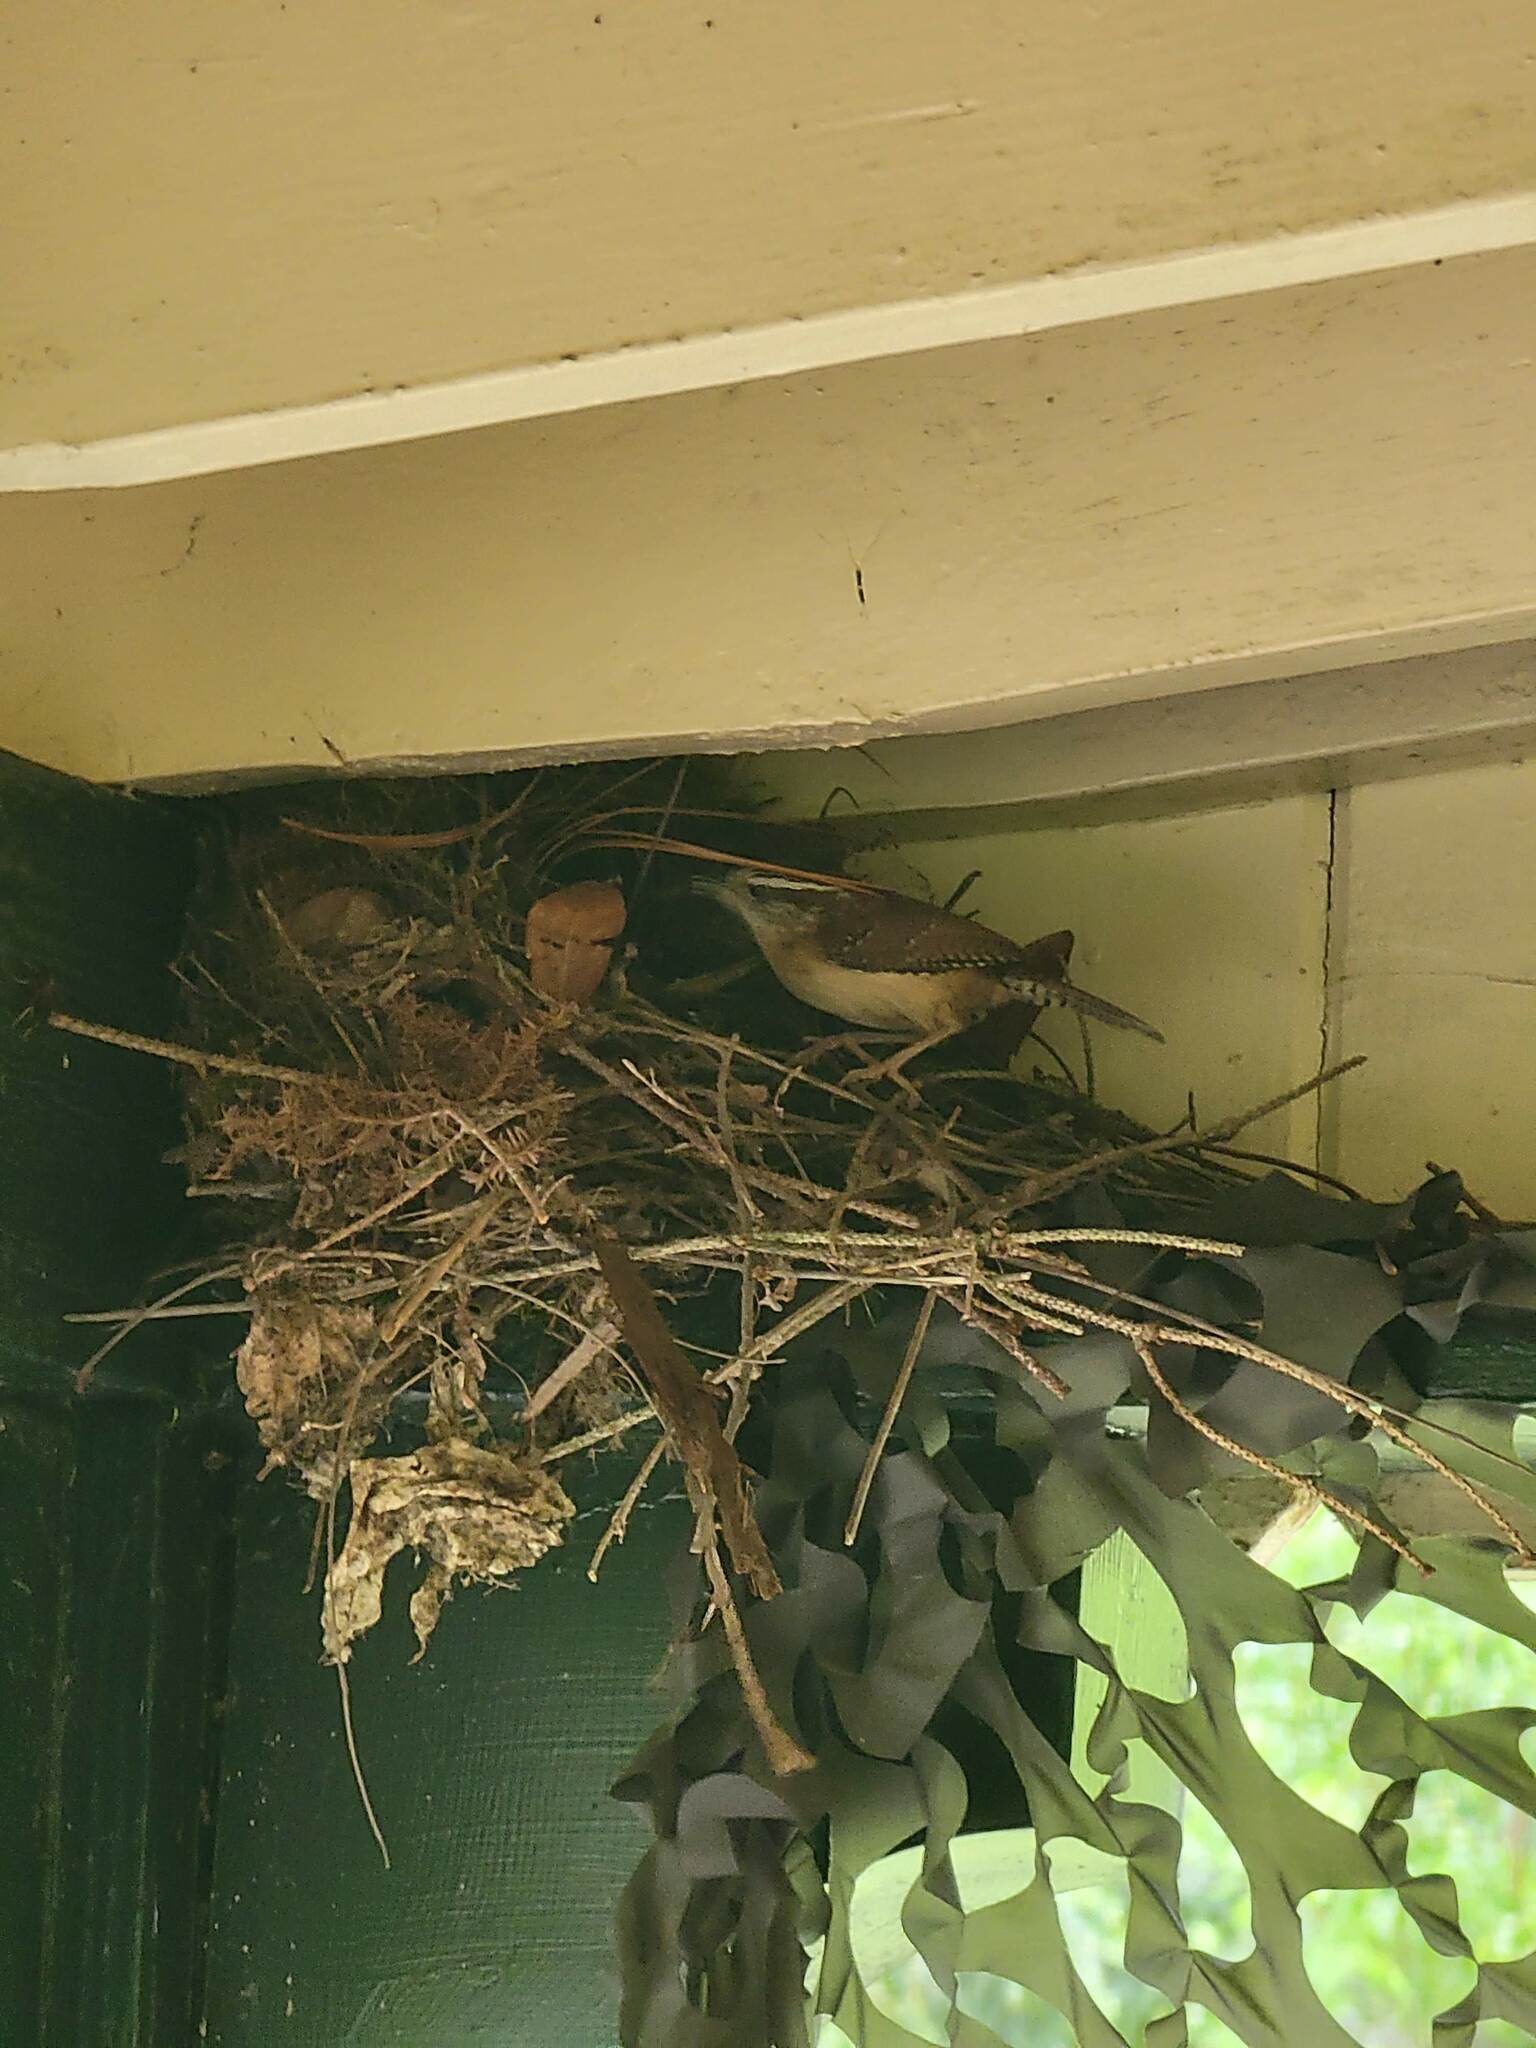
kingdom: Animalia
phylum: Chordata
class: Aves
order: Passeriformes
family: Troglodytidae
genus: Thryothorus
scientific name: Thryothorus ludovicianus
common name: Carolina wren
